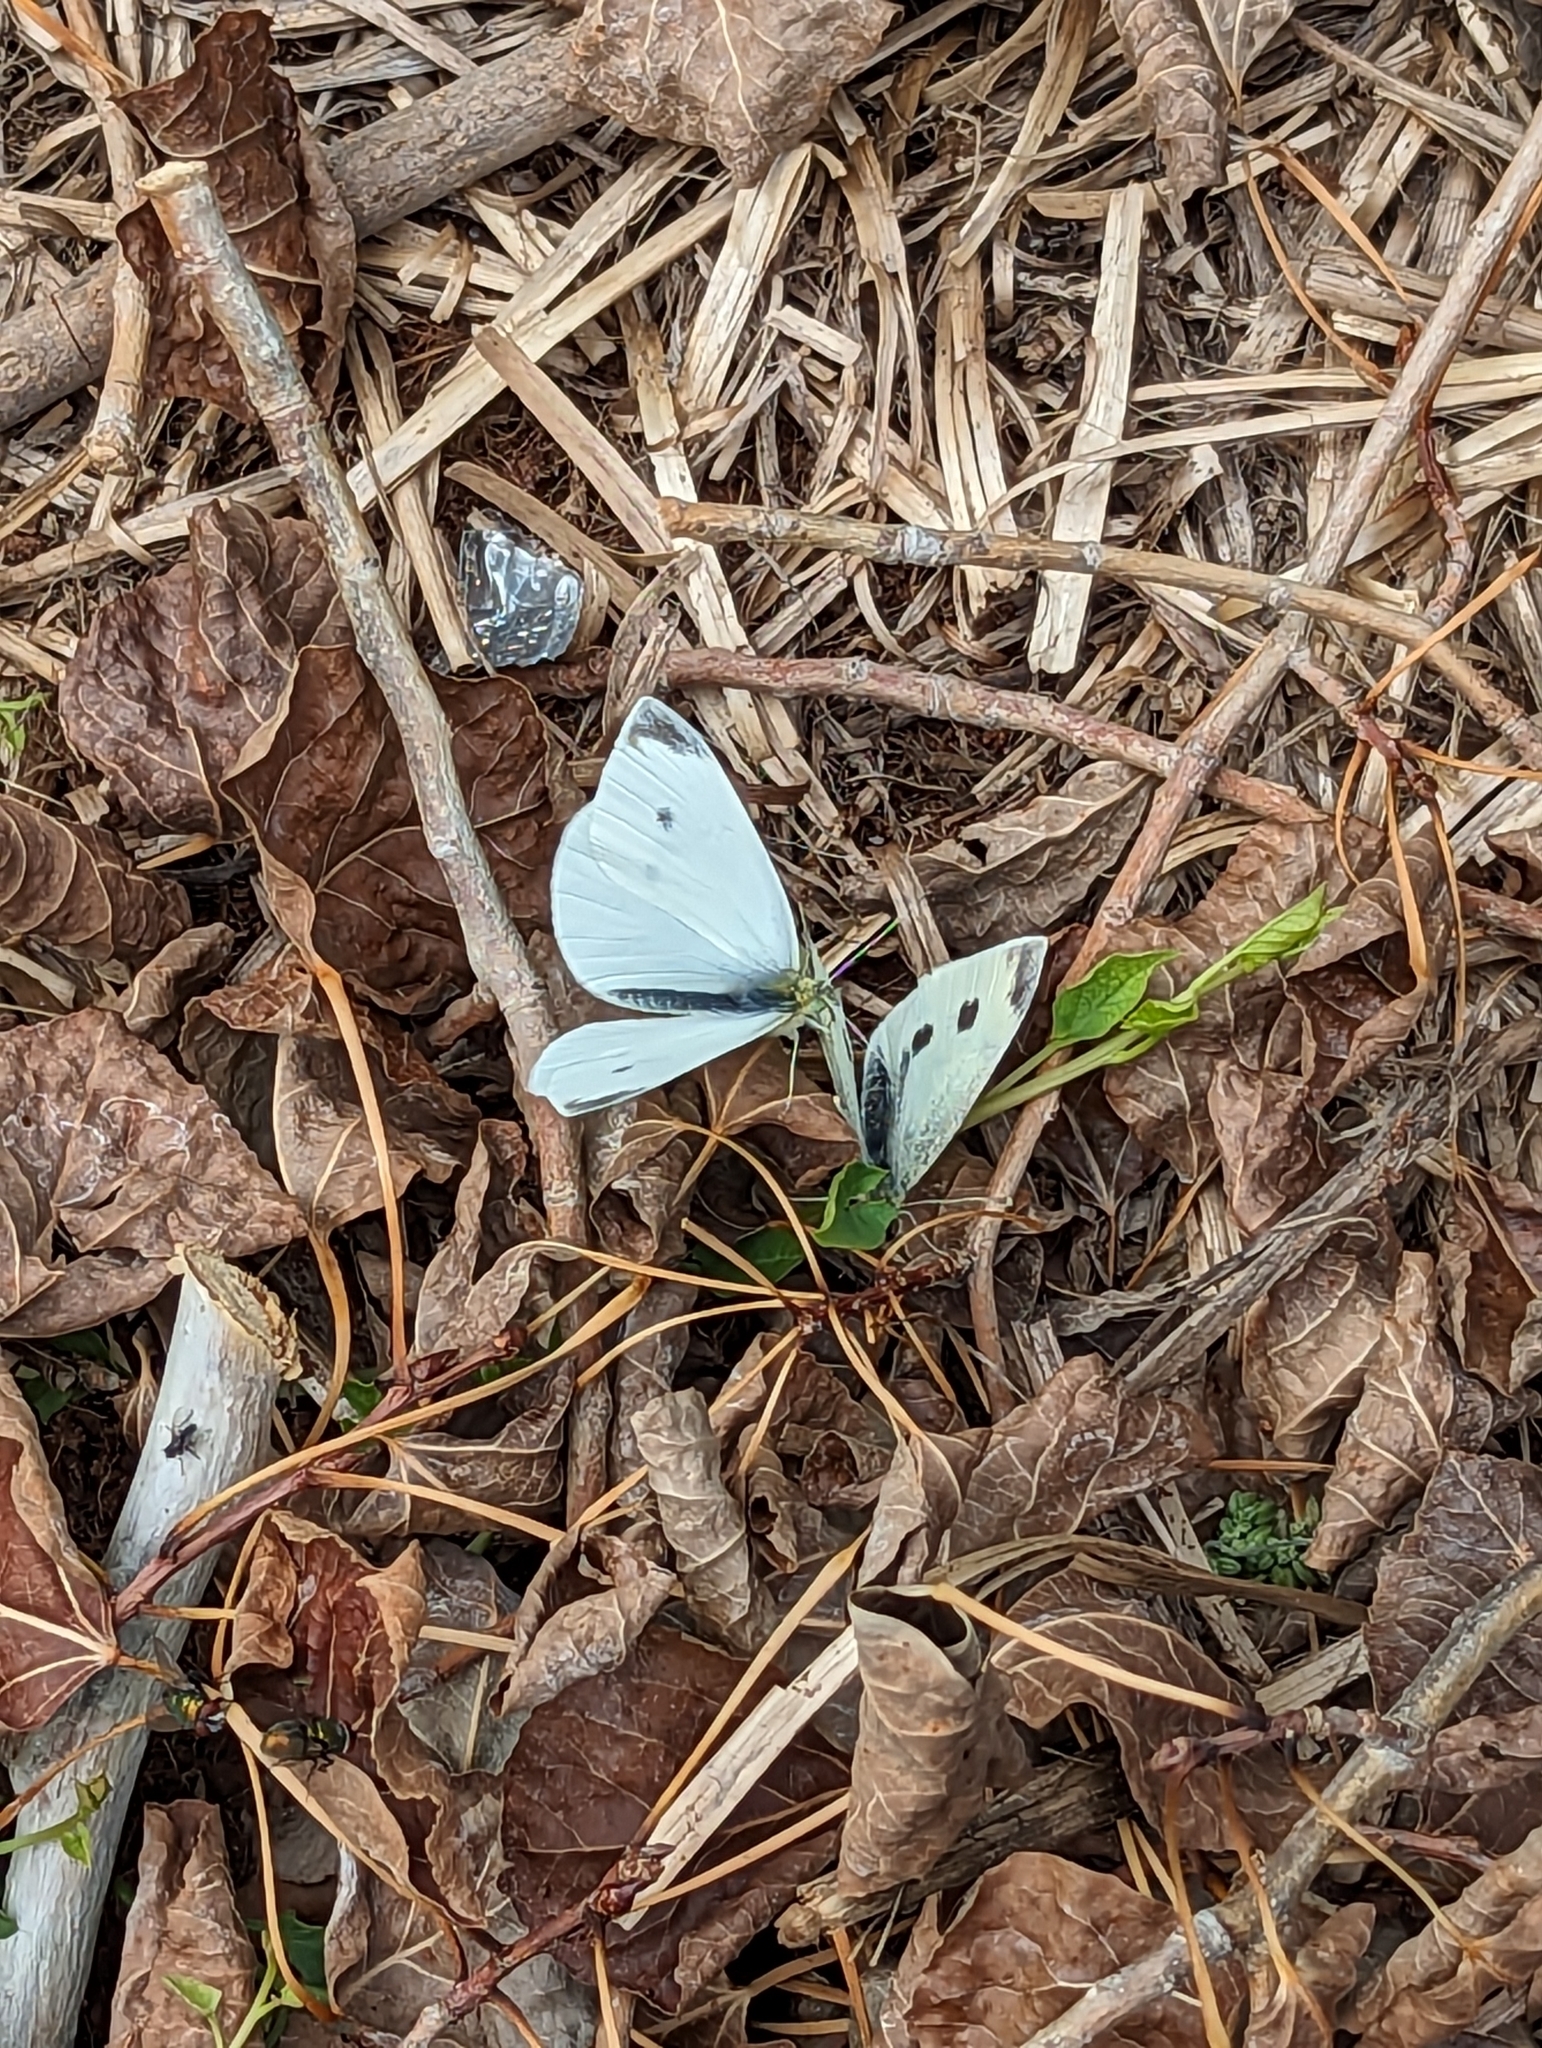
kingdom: Animalia
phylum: Arthropoda
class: Insecta
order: Lepidoptera
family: Pieridae
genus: Pieris
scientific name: Pieris rapae
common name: Small white
